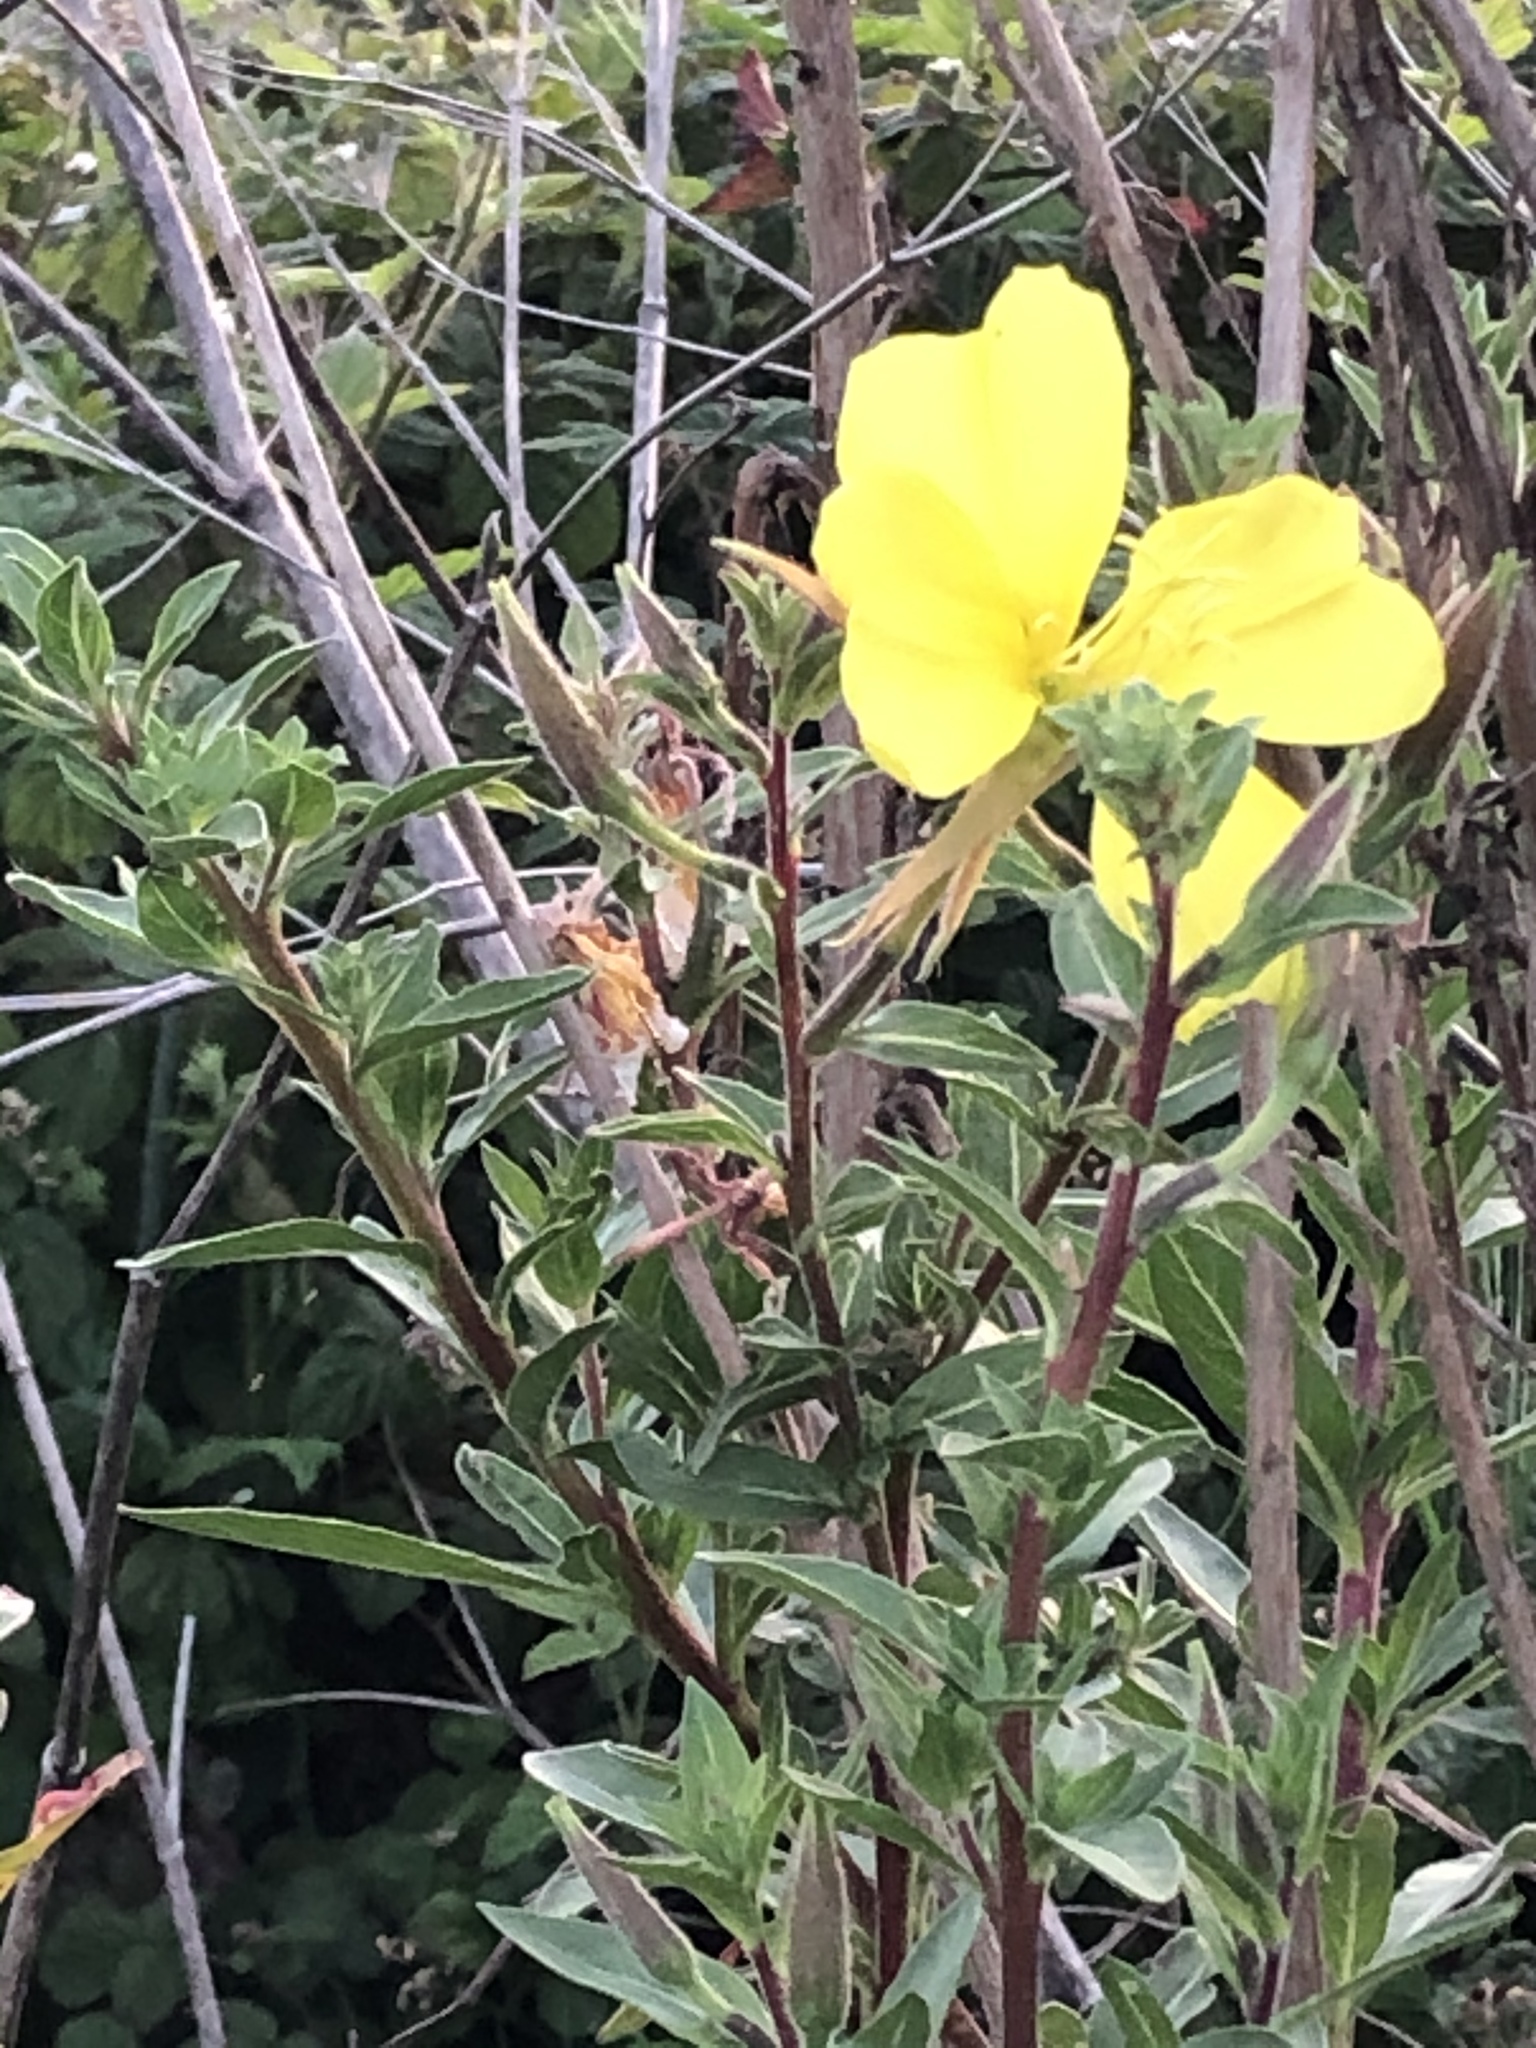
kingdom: Plantae
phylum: Tracheophyta
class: Magnoliopsida
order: Myrtales
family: Onagraceae
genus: Oenothera
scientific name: Oenothera elata
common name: Hooker's evening-primrose
